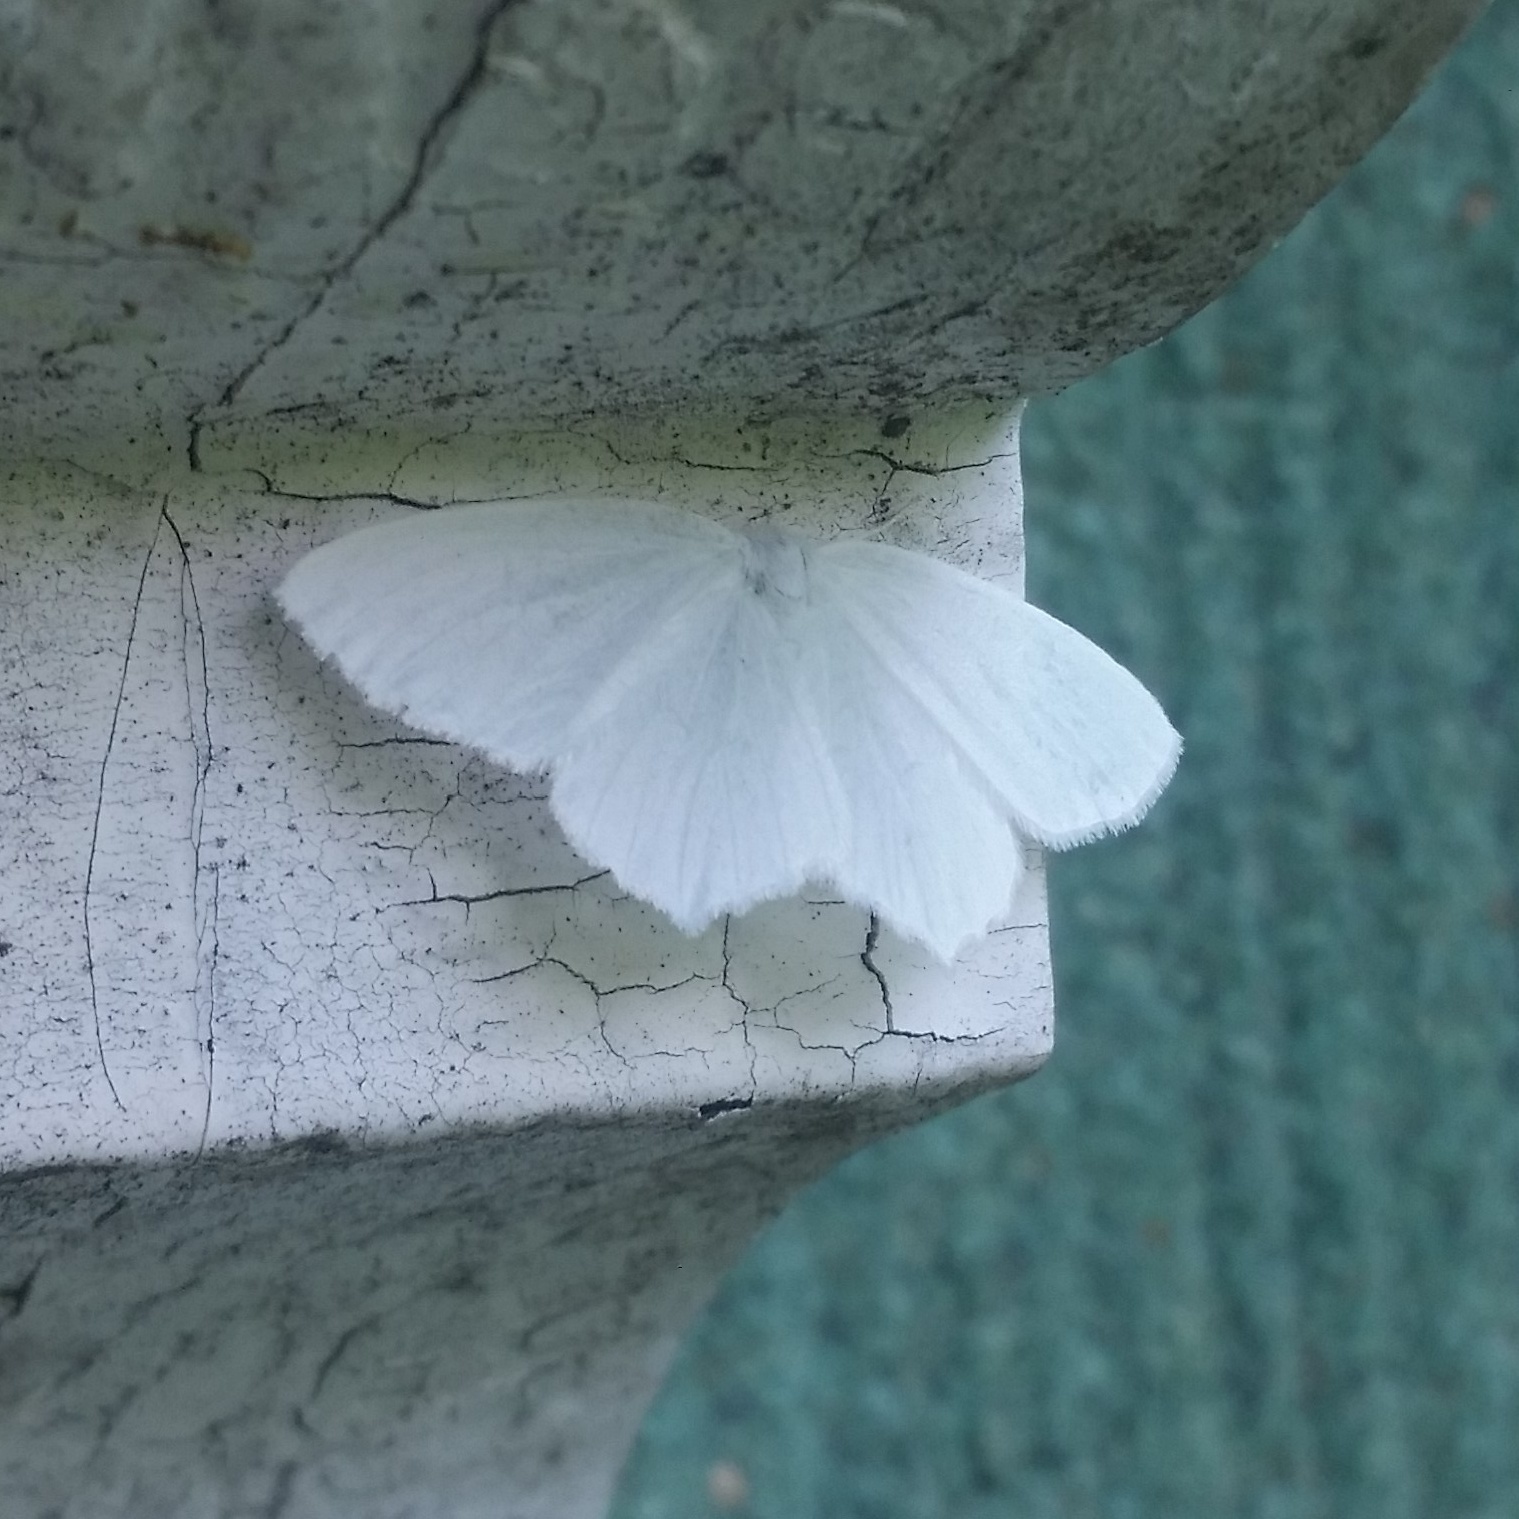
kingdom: Animalia
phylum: Arthropoda
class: Insecta
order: Lepidoptera
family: Geometridae
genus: Eugonobapta
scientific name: Eugonobapta nivosaria
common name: Snowy geometer
